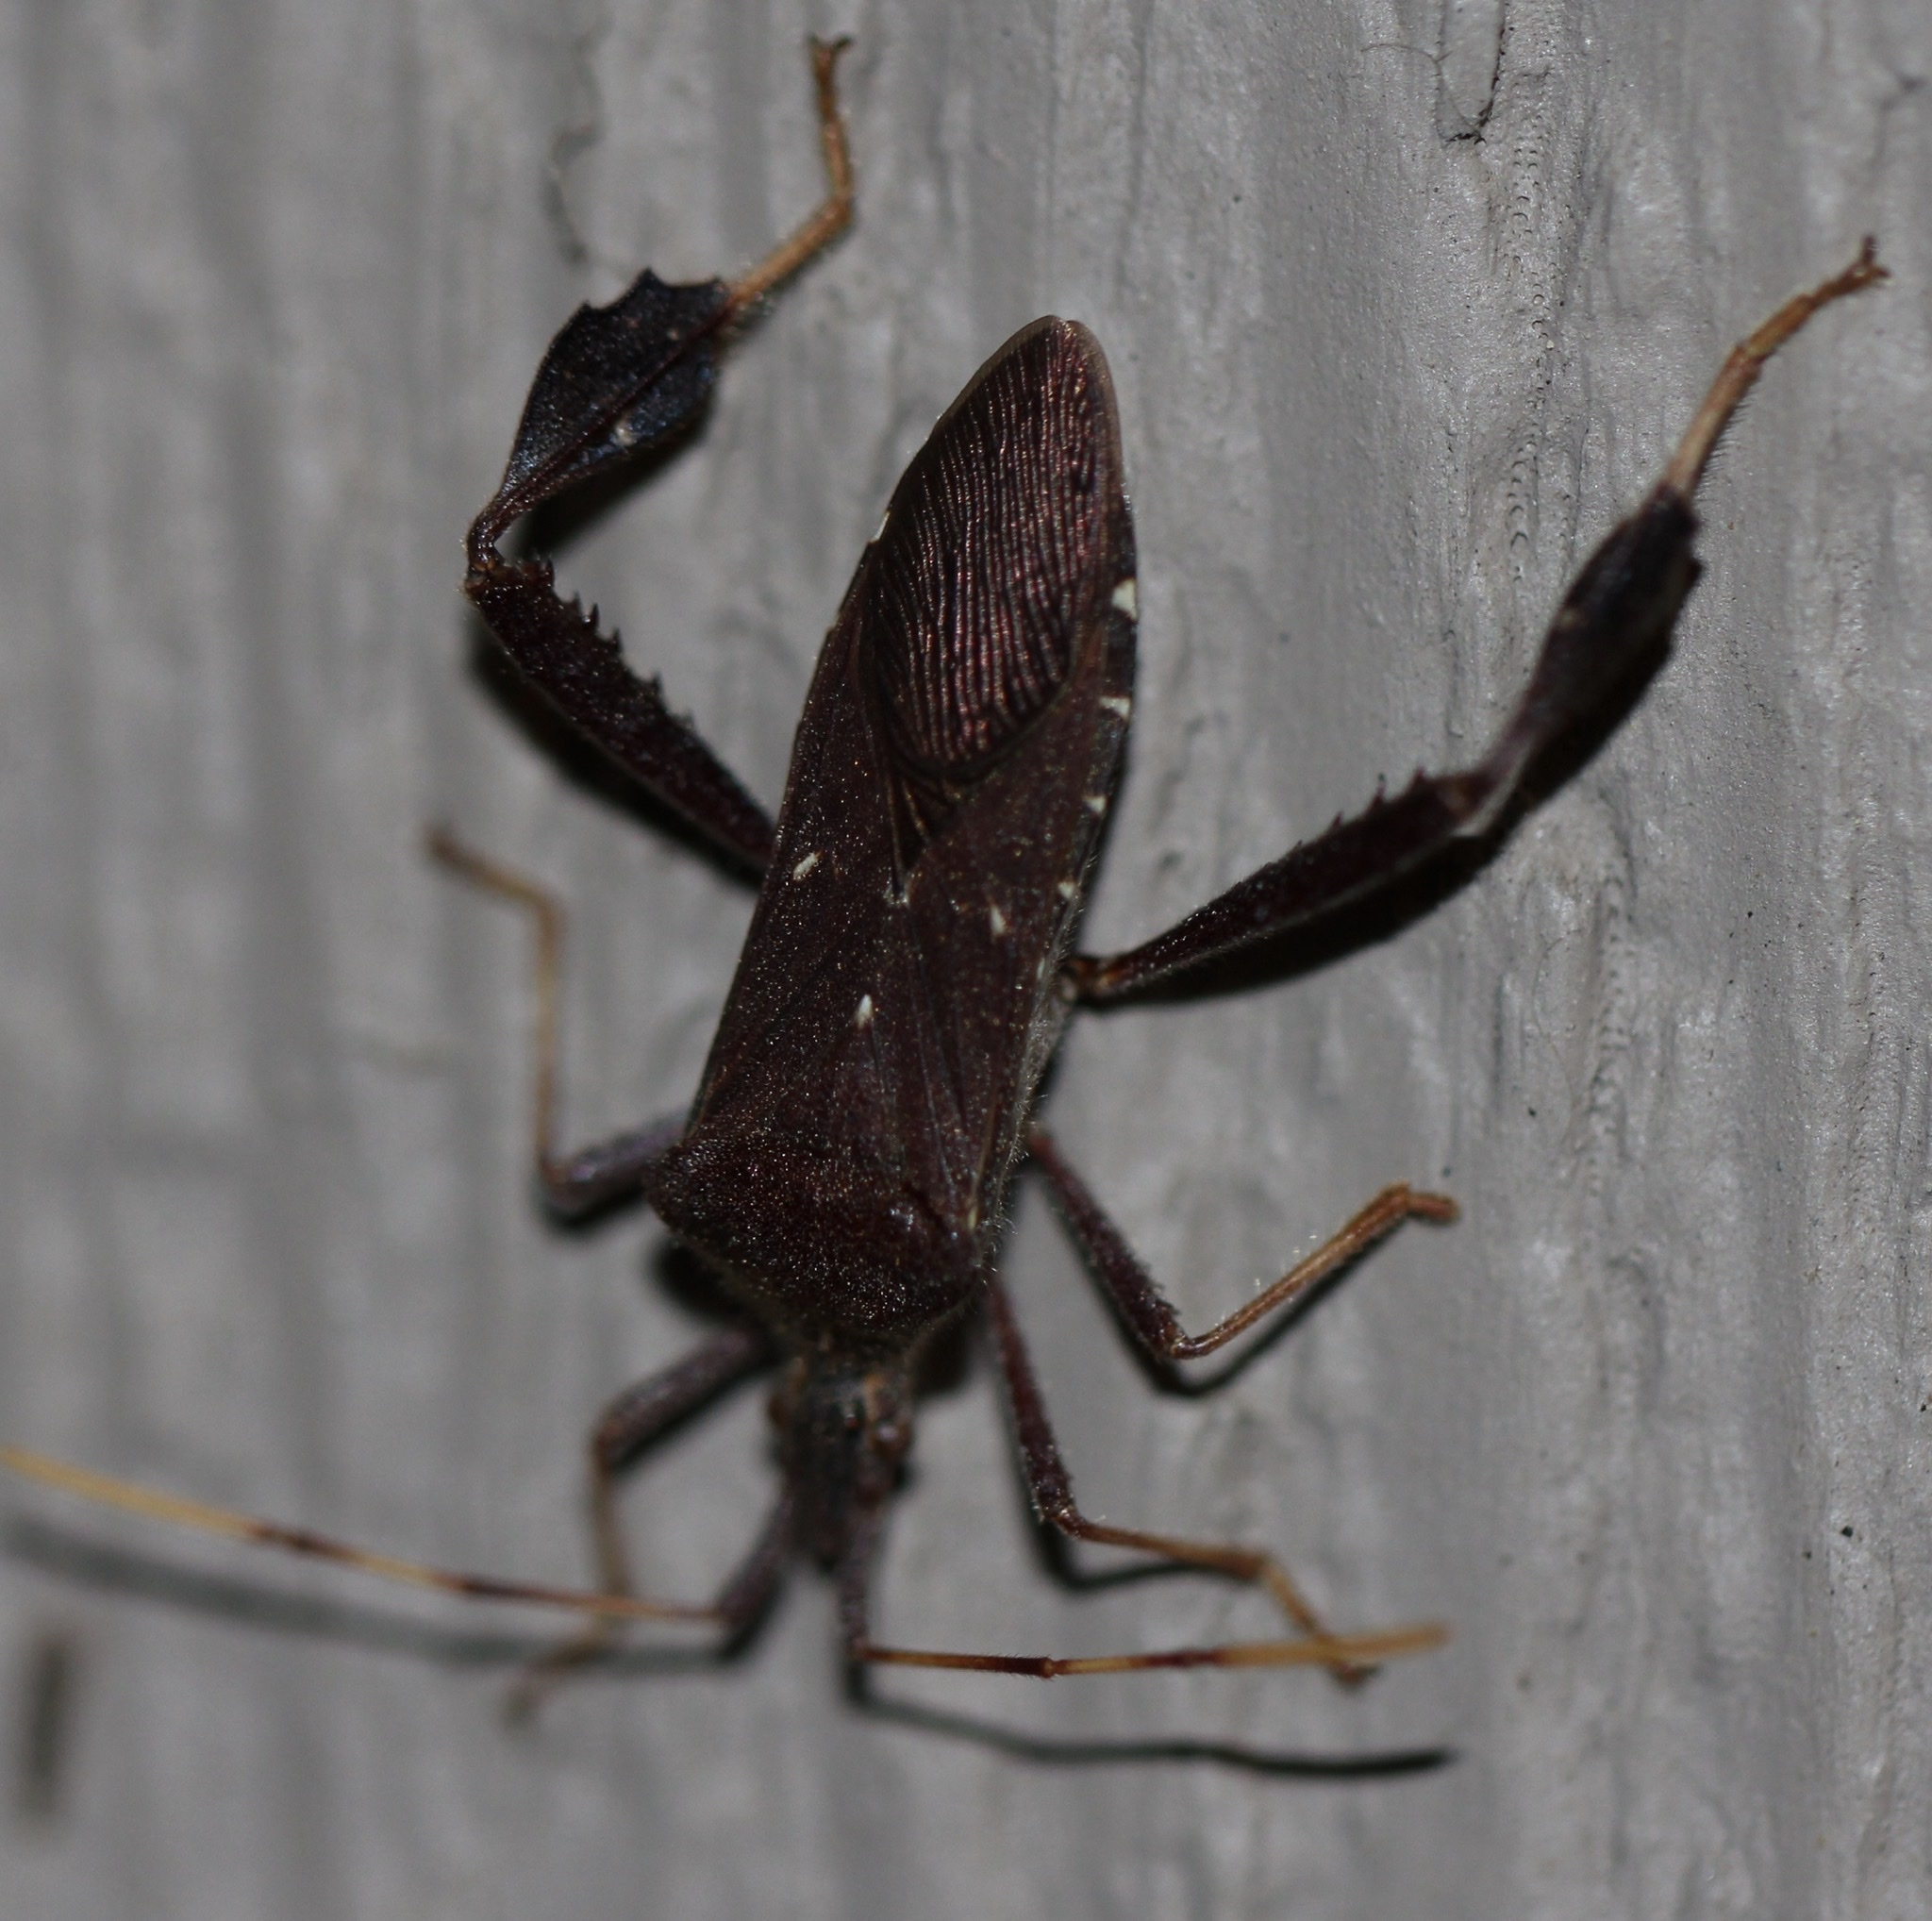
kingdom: Animalia
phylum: Arthropoda
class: Insecta
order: Hemiptera
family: Coreidae
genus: Leptoglossus
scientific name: Leptoglossus oppositus
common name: Northern leaf-footed bug
